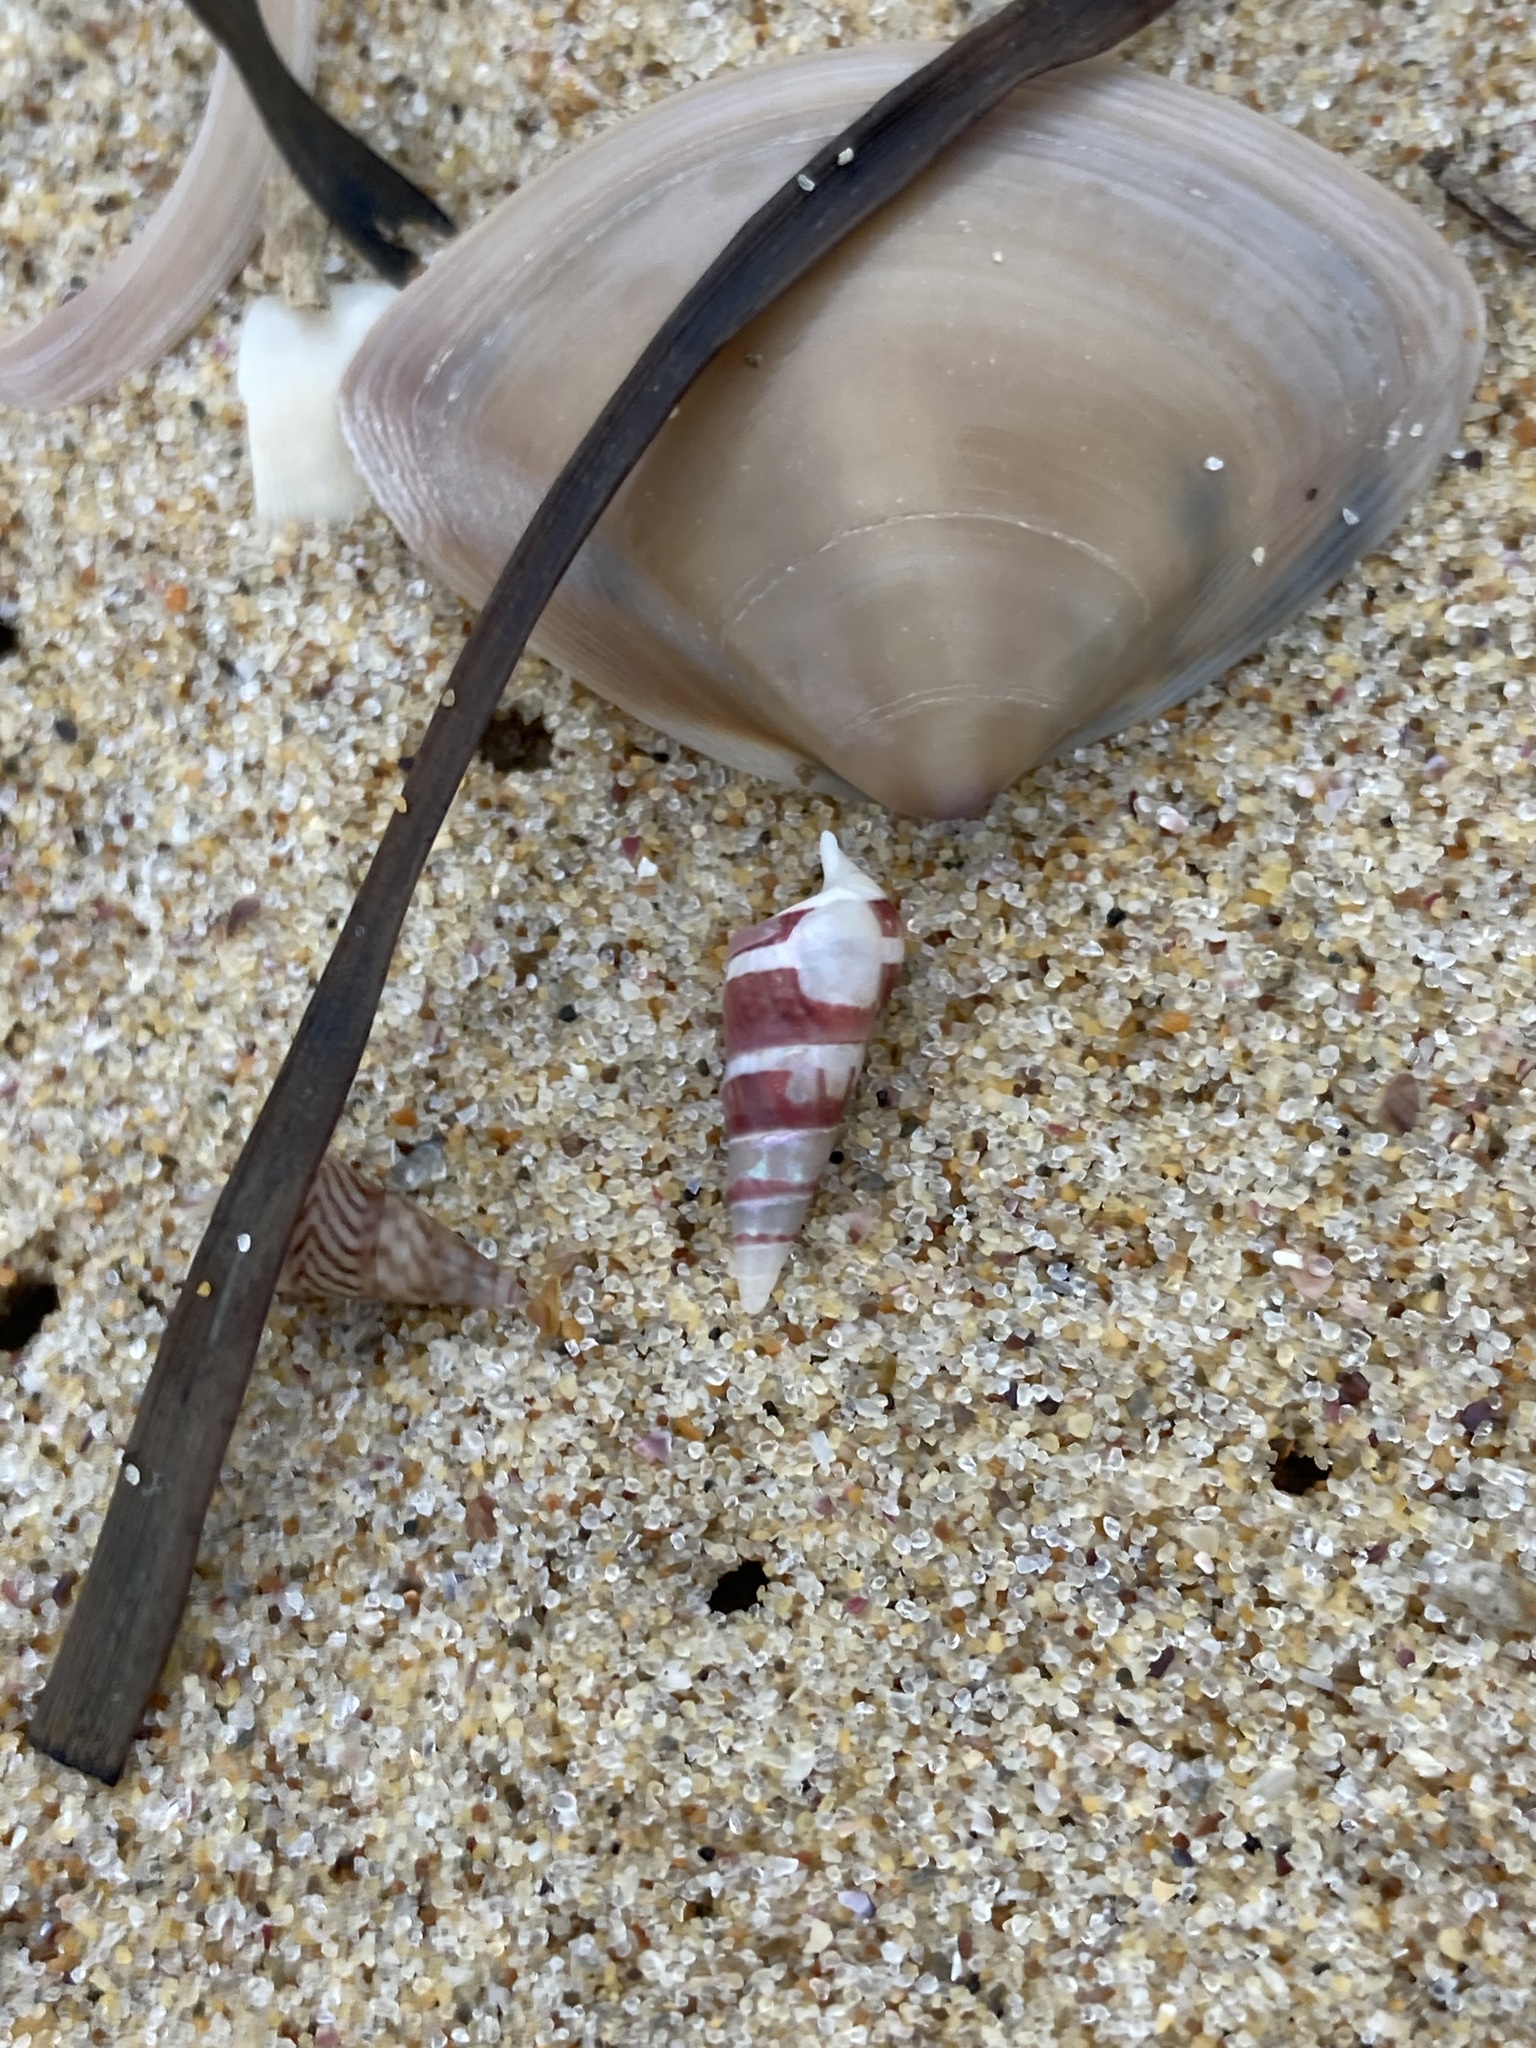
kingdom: Animalia
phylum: Mollusca
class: Gastropoda
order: Trochida
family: Trochidae
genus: Bankivia
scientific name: Bankivia fasciata
